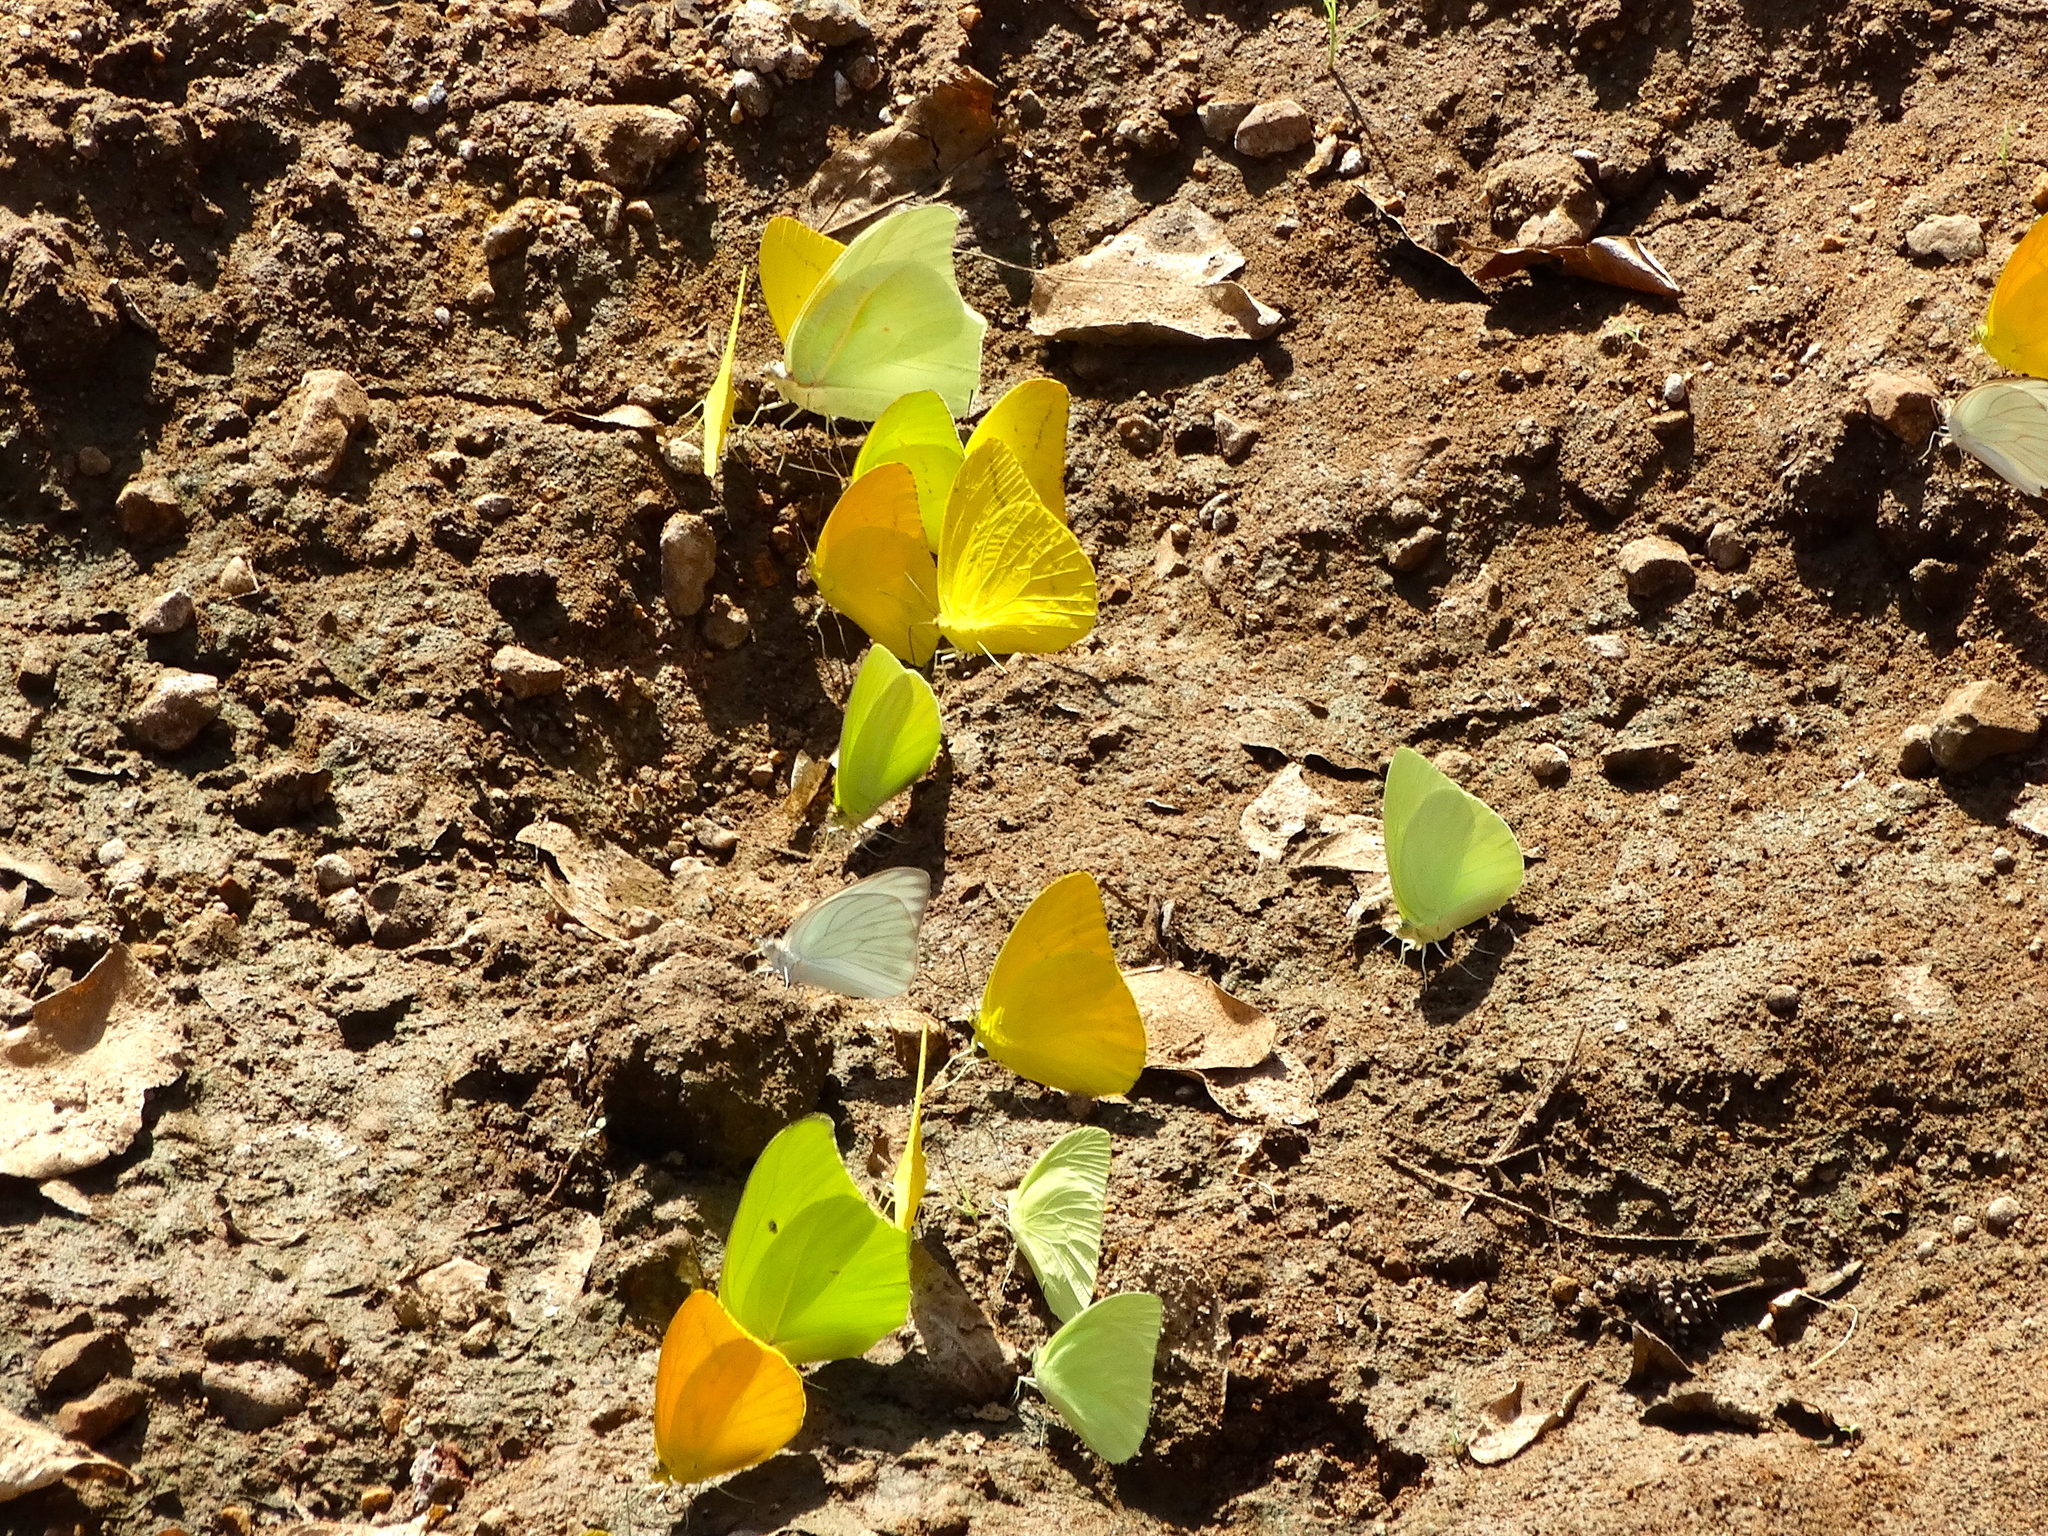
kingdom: Animalia
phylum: Arthropoda
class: Insecta
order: Lepidoptera
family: Pieridae
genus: Anteos
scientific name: Anteos
